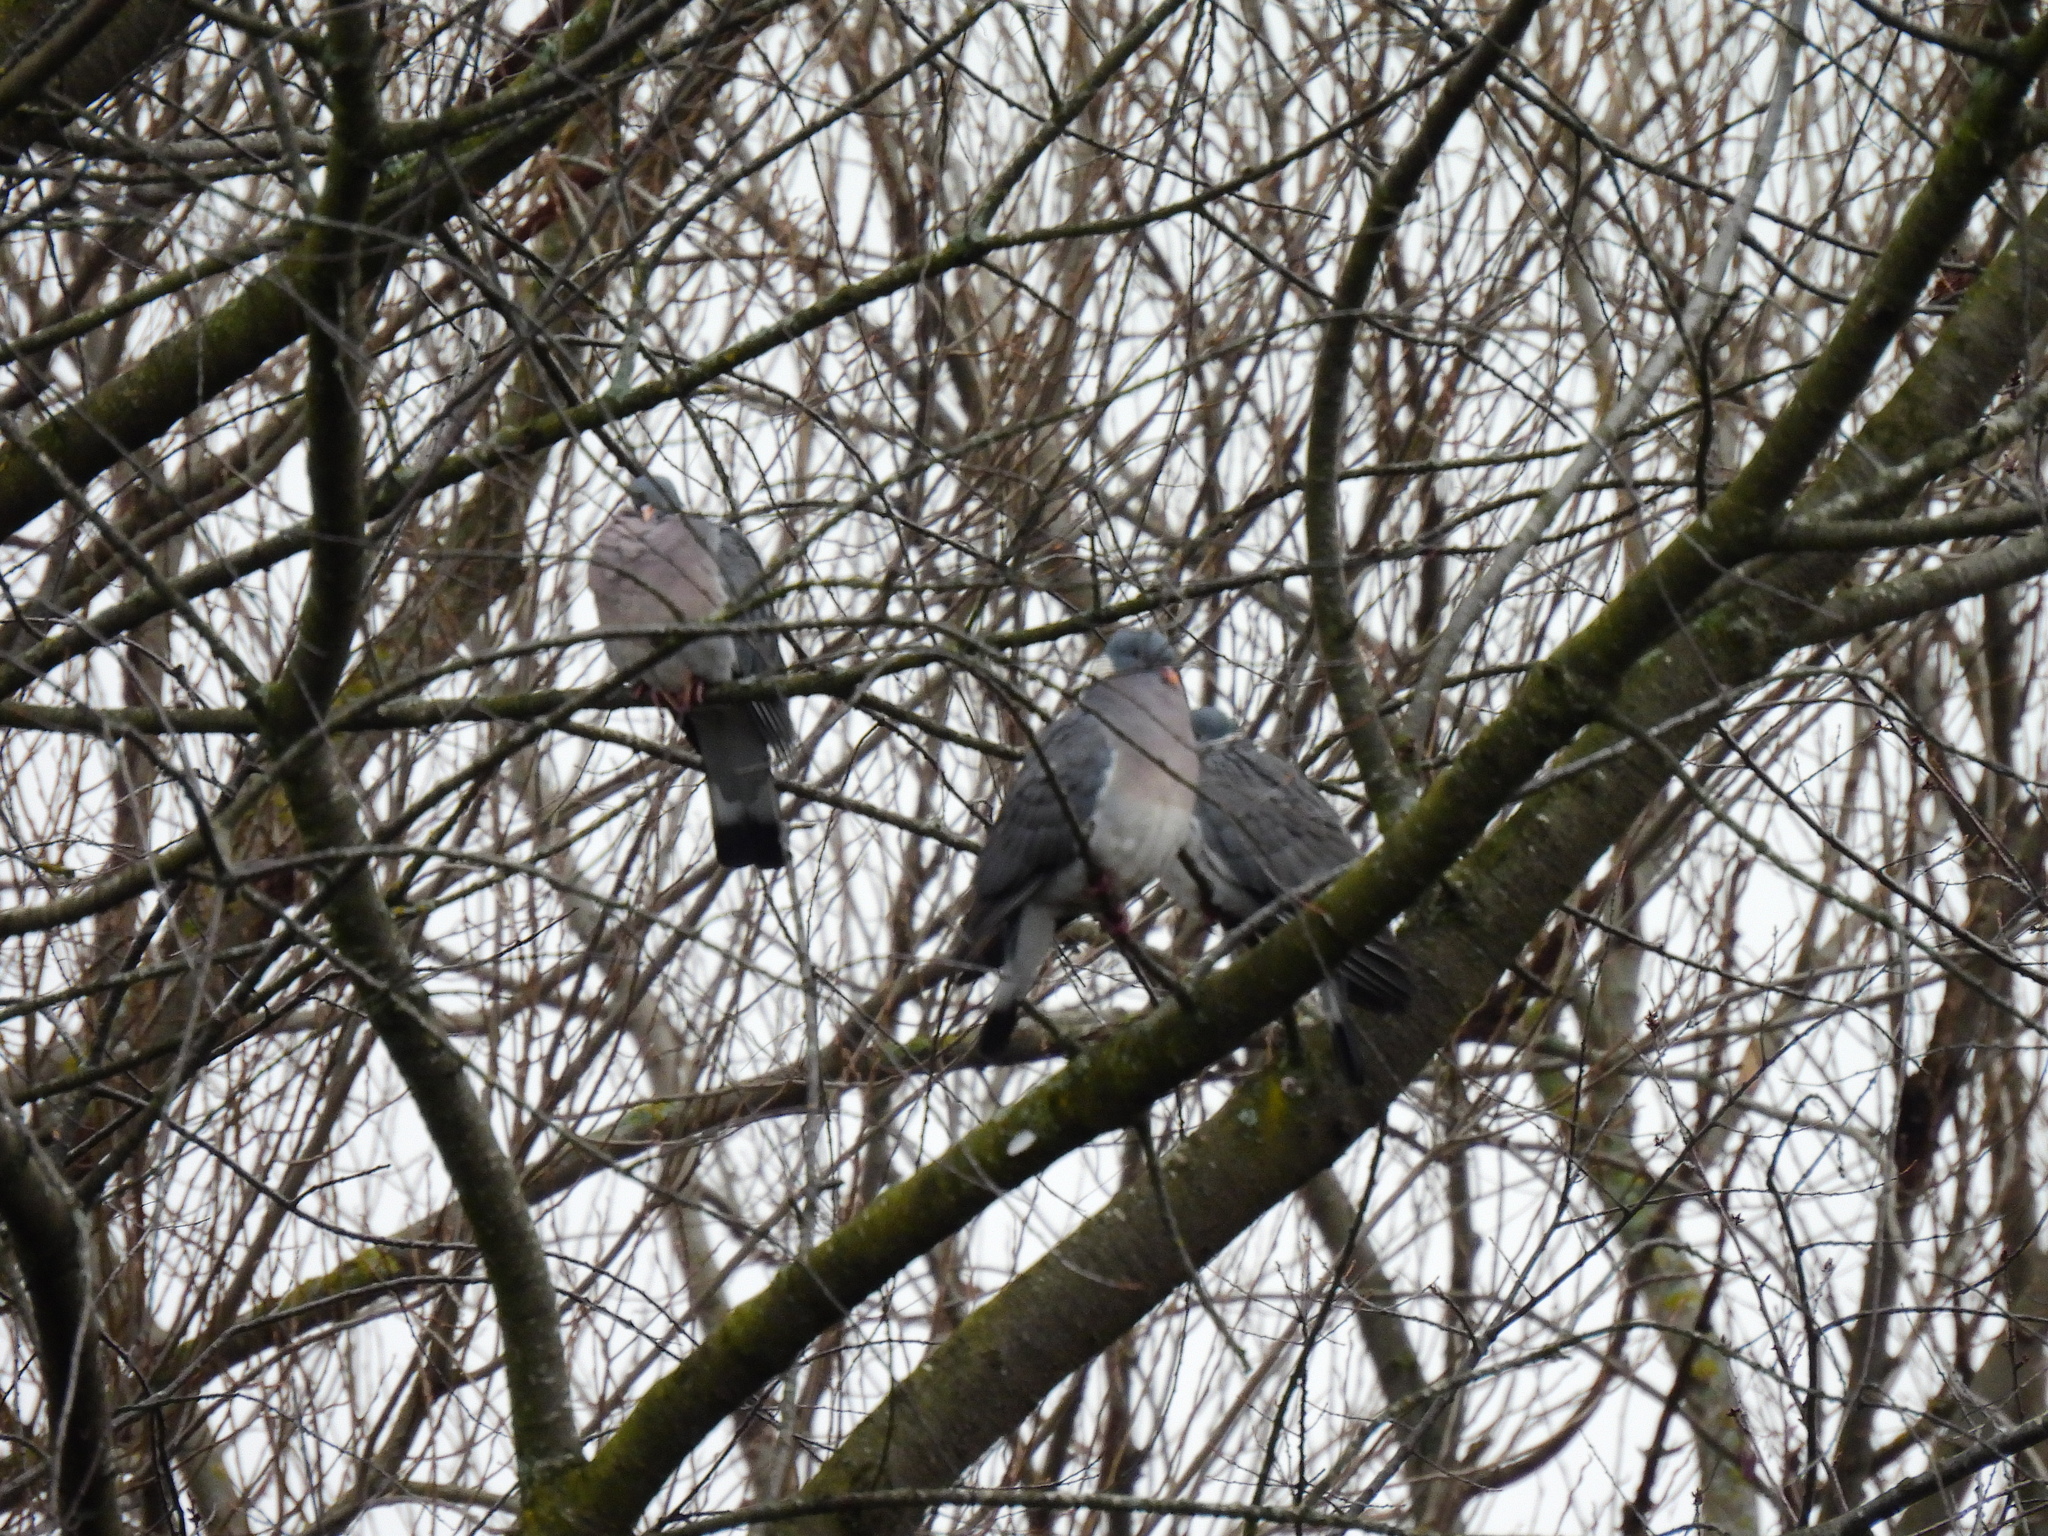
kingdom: Animalia
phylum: Chordata
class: Aves
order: Columbiformes
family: Columbidae
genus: Columba
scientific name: Columba palumbus
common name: Common wood pigeon
